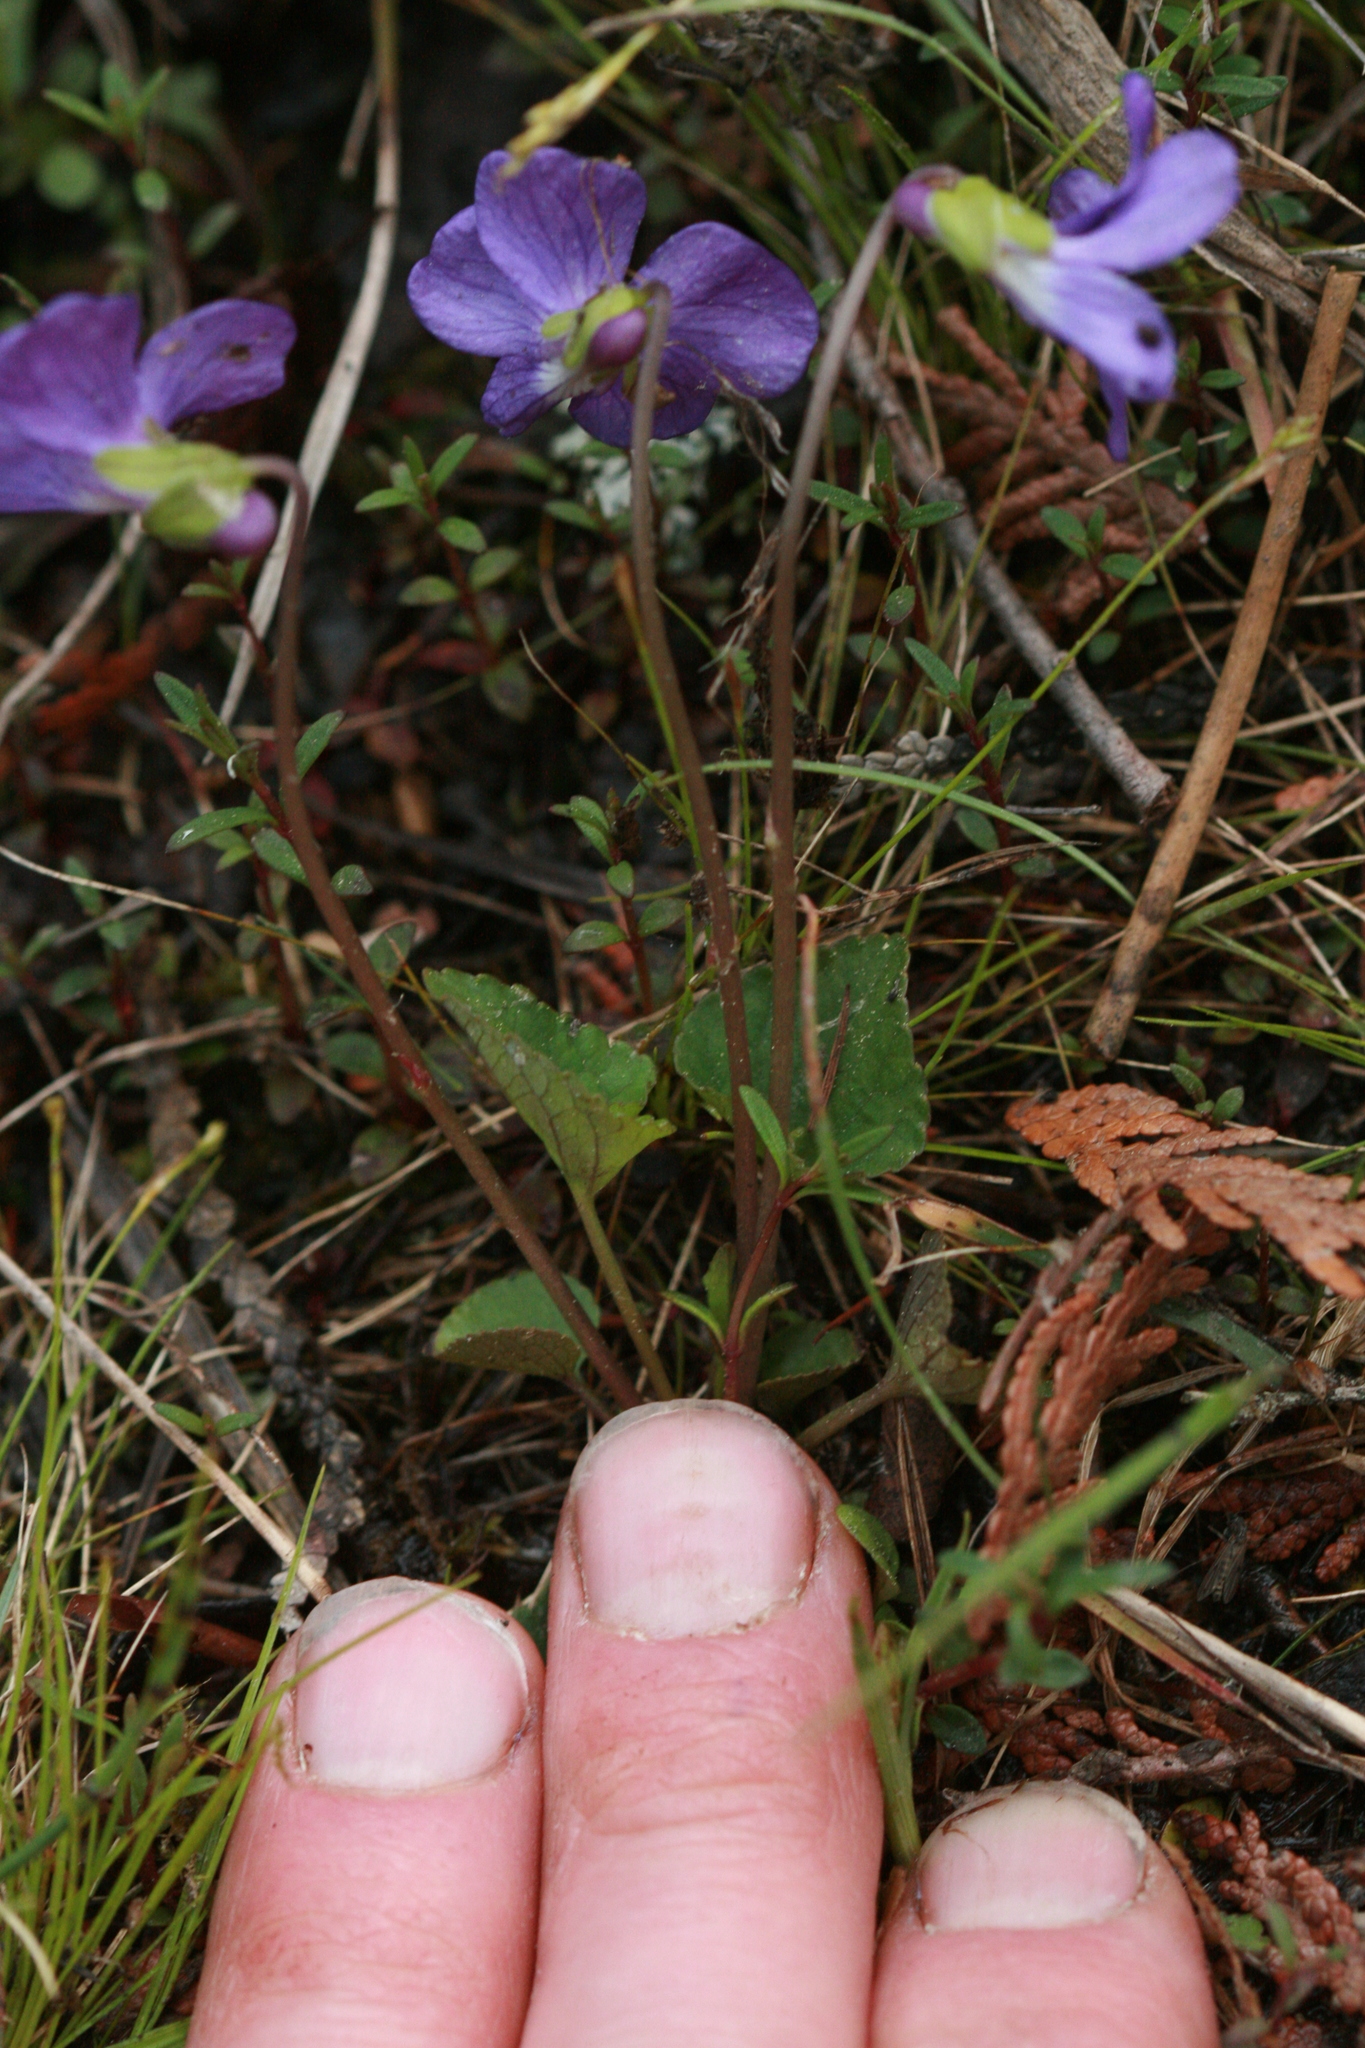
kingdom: Plantae
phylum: Tracheophyta
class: Magnoliopsida
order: Malpighiales
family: Violaceae
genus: Viola
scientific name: Viola nephrophylla
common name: Blue meadow violet
